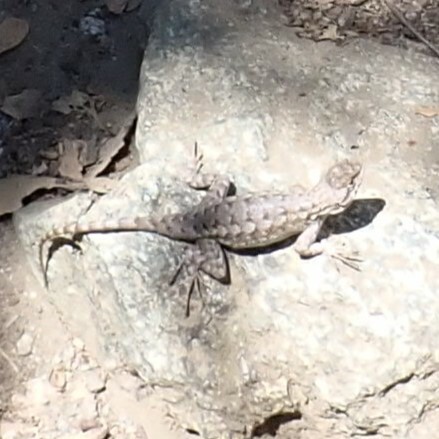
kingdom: Animalia
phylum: Chordata
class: Squamata
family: Phrynosomatidae
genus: Sceloporus
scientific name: Sceloporus occidentalis
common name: Western fence lizard
